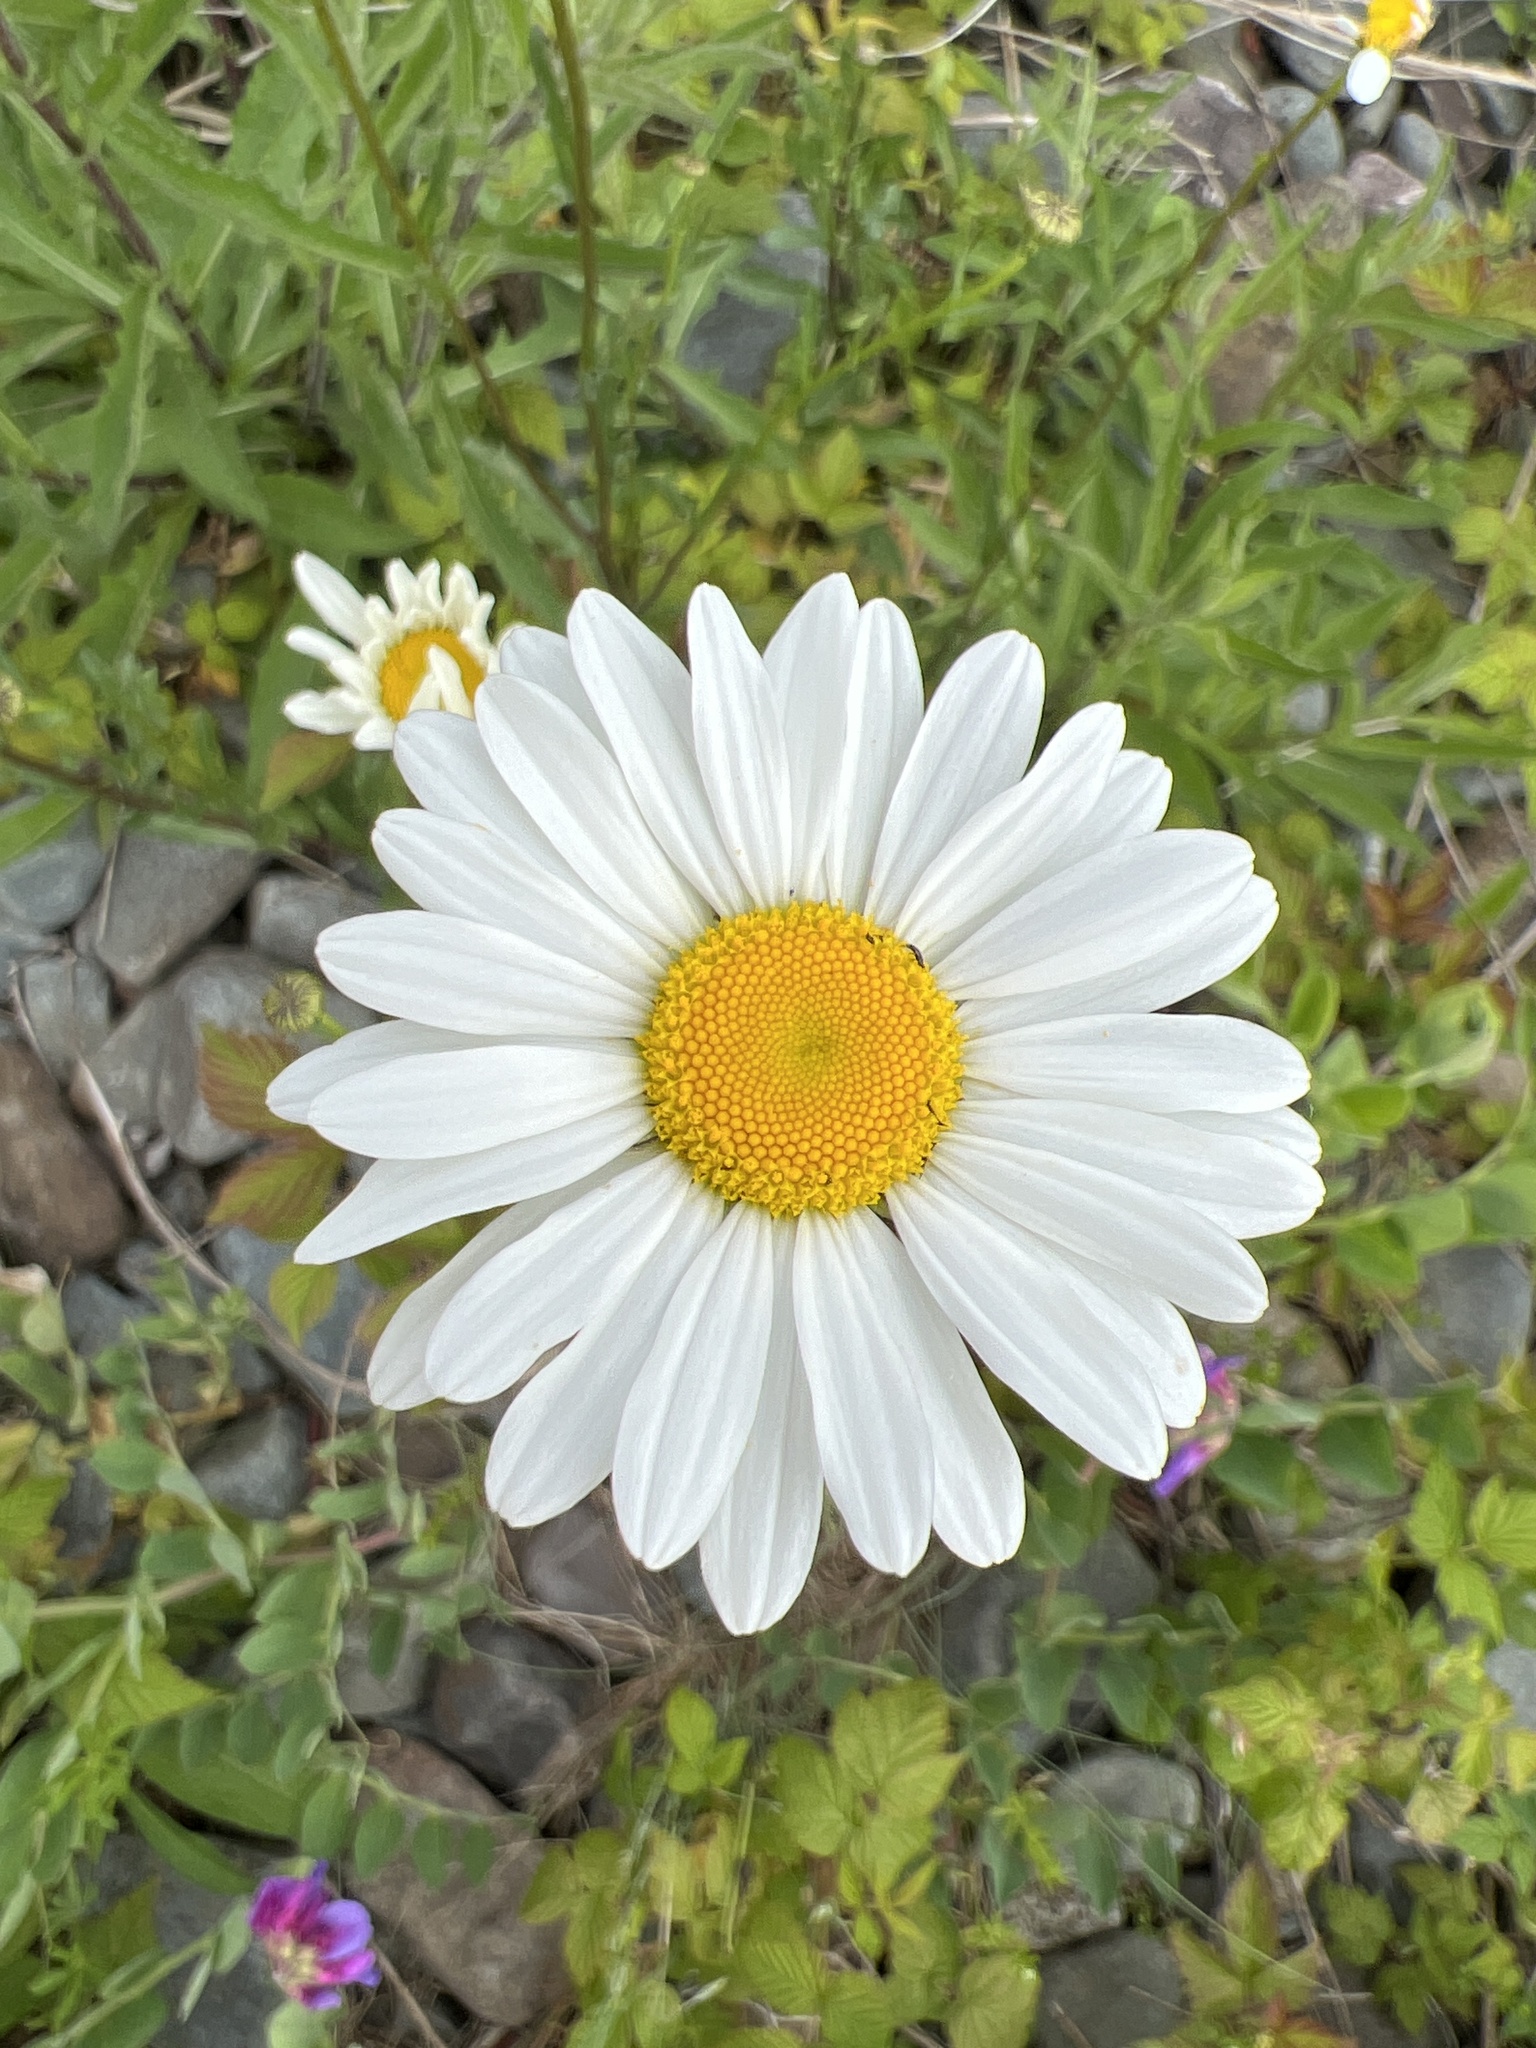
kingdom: Plantae
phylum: Tracheophyta
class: Magnoliopsida
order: Asterales
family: Asteraceae
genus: Leucanthemum
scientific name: Leucanthemum vulgare
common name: Oxeye daisy
